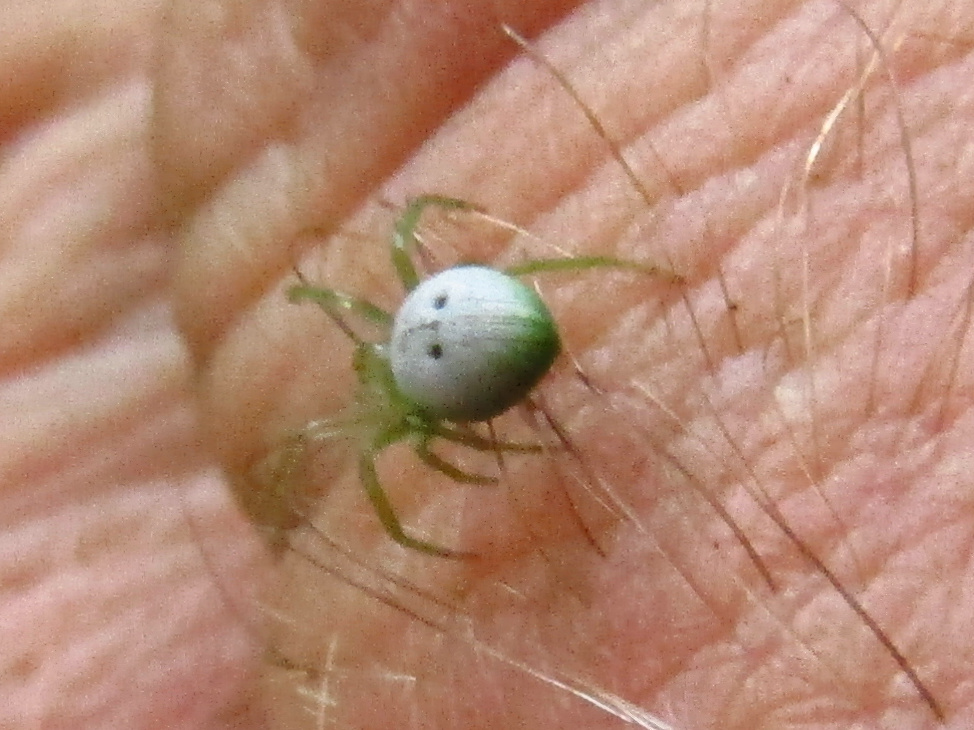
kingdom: Animalia
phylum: Arthropoda
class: Arachnida
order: Araneae
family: Araneidae
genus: Araneus
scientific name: Araneus transversus
